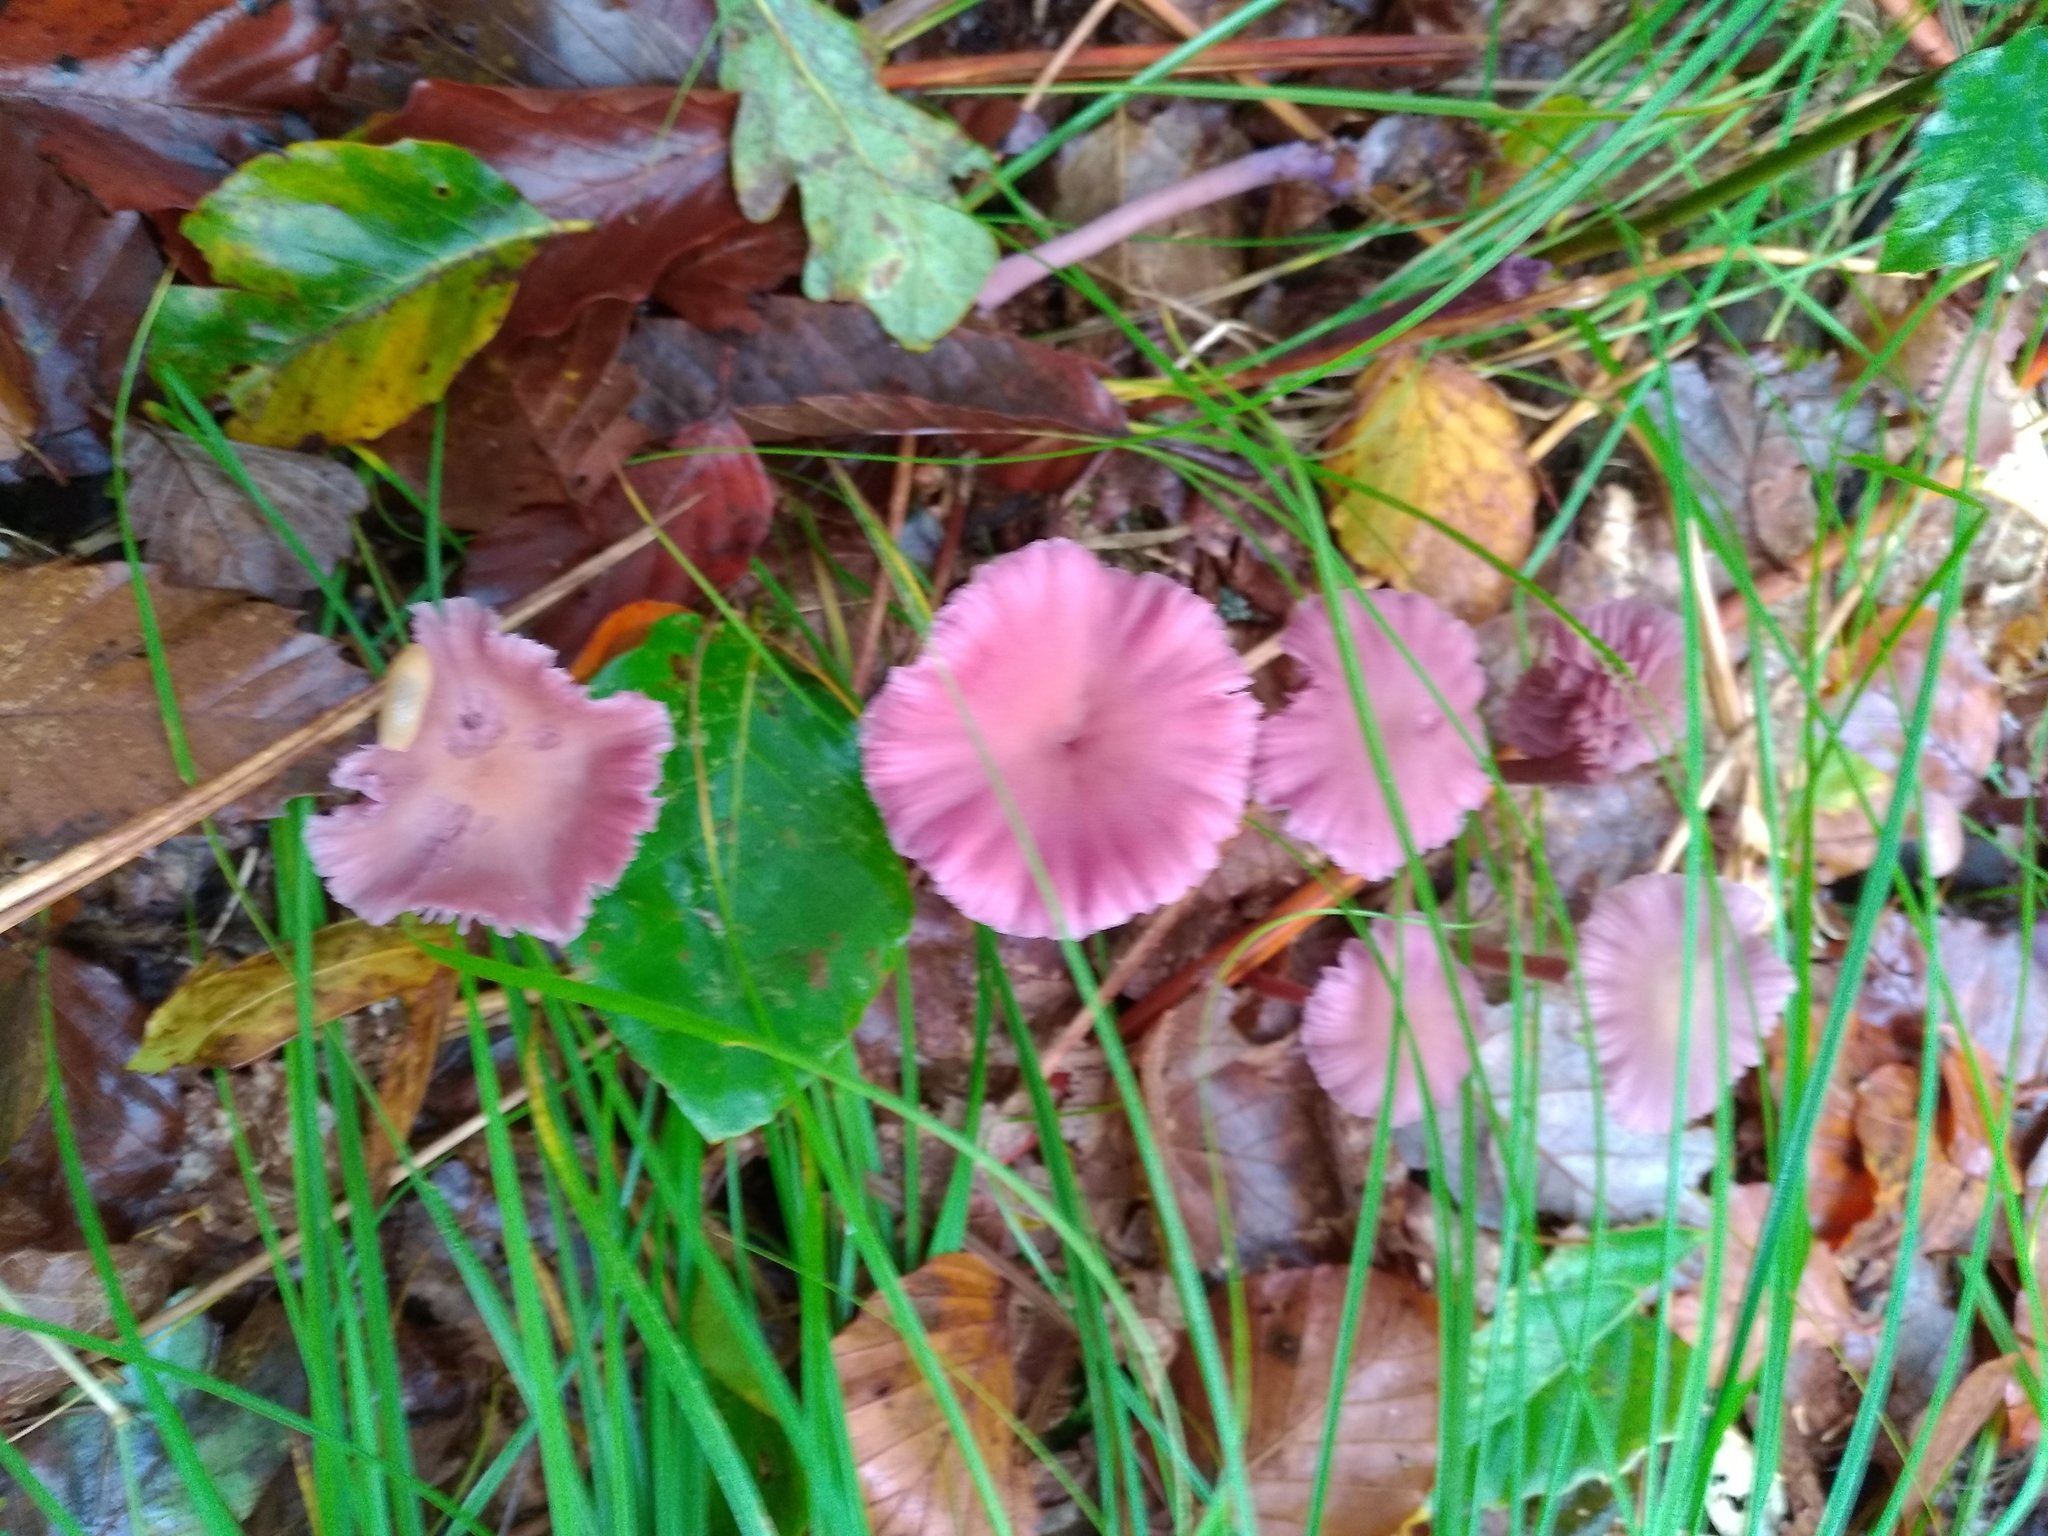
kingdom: Fungi
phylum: Basidiomycota
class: Agaricomycetes
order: Agaricales
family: Hydnangiaceae
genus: Laccaria
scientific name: Laccaria amethystina
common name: Amethyst deceiver
